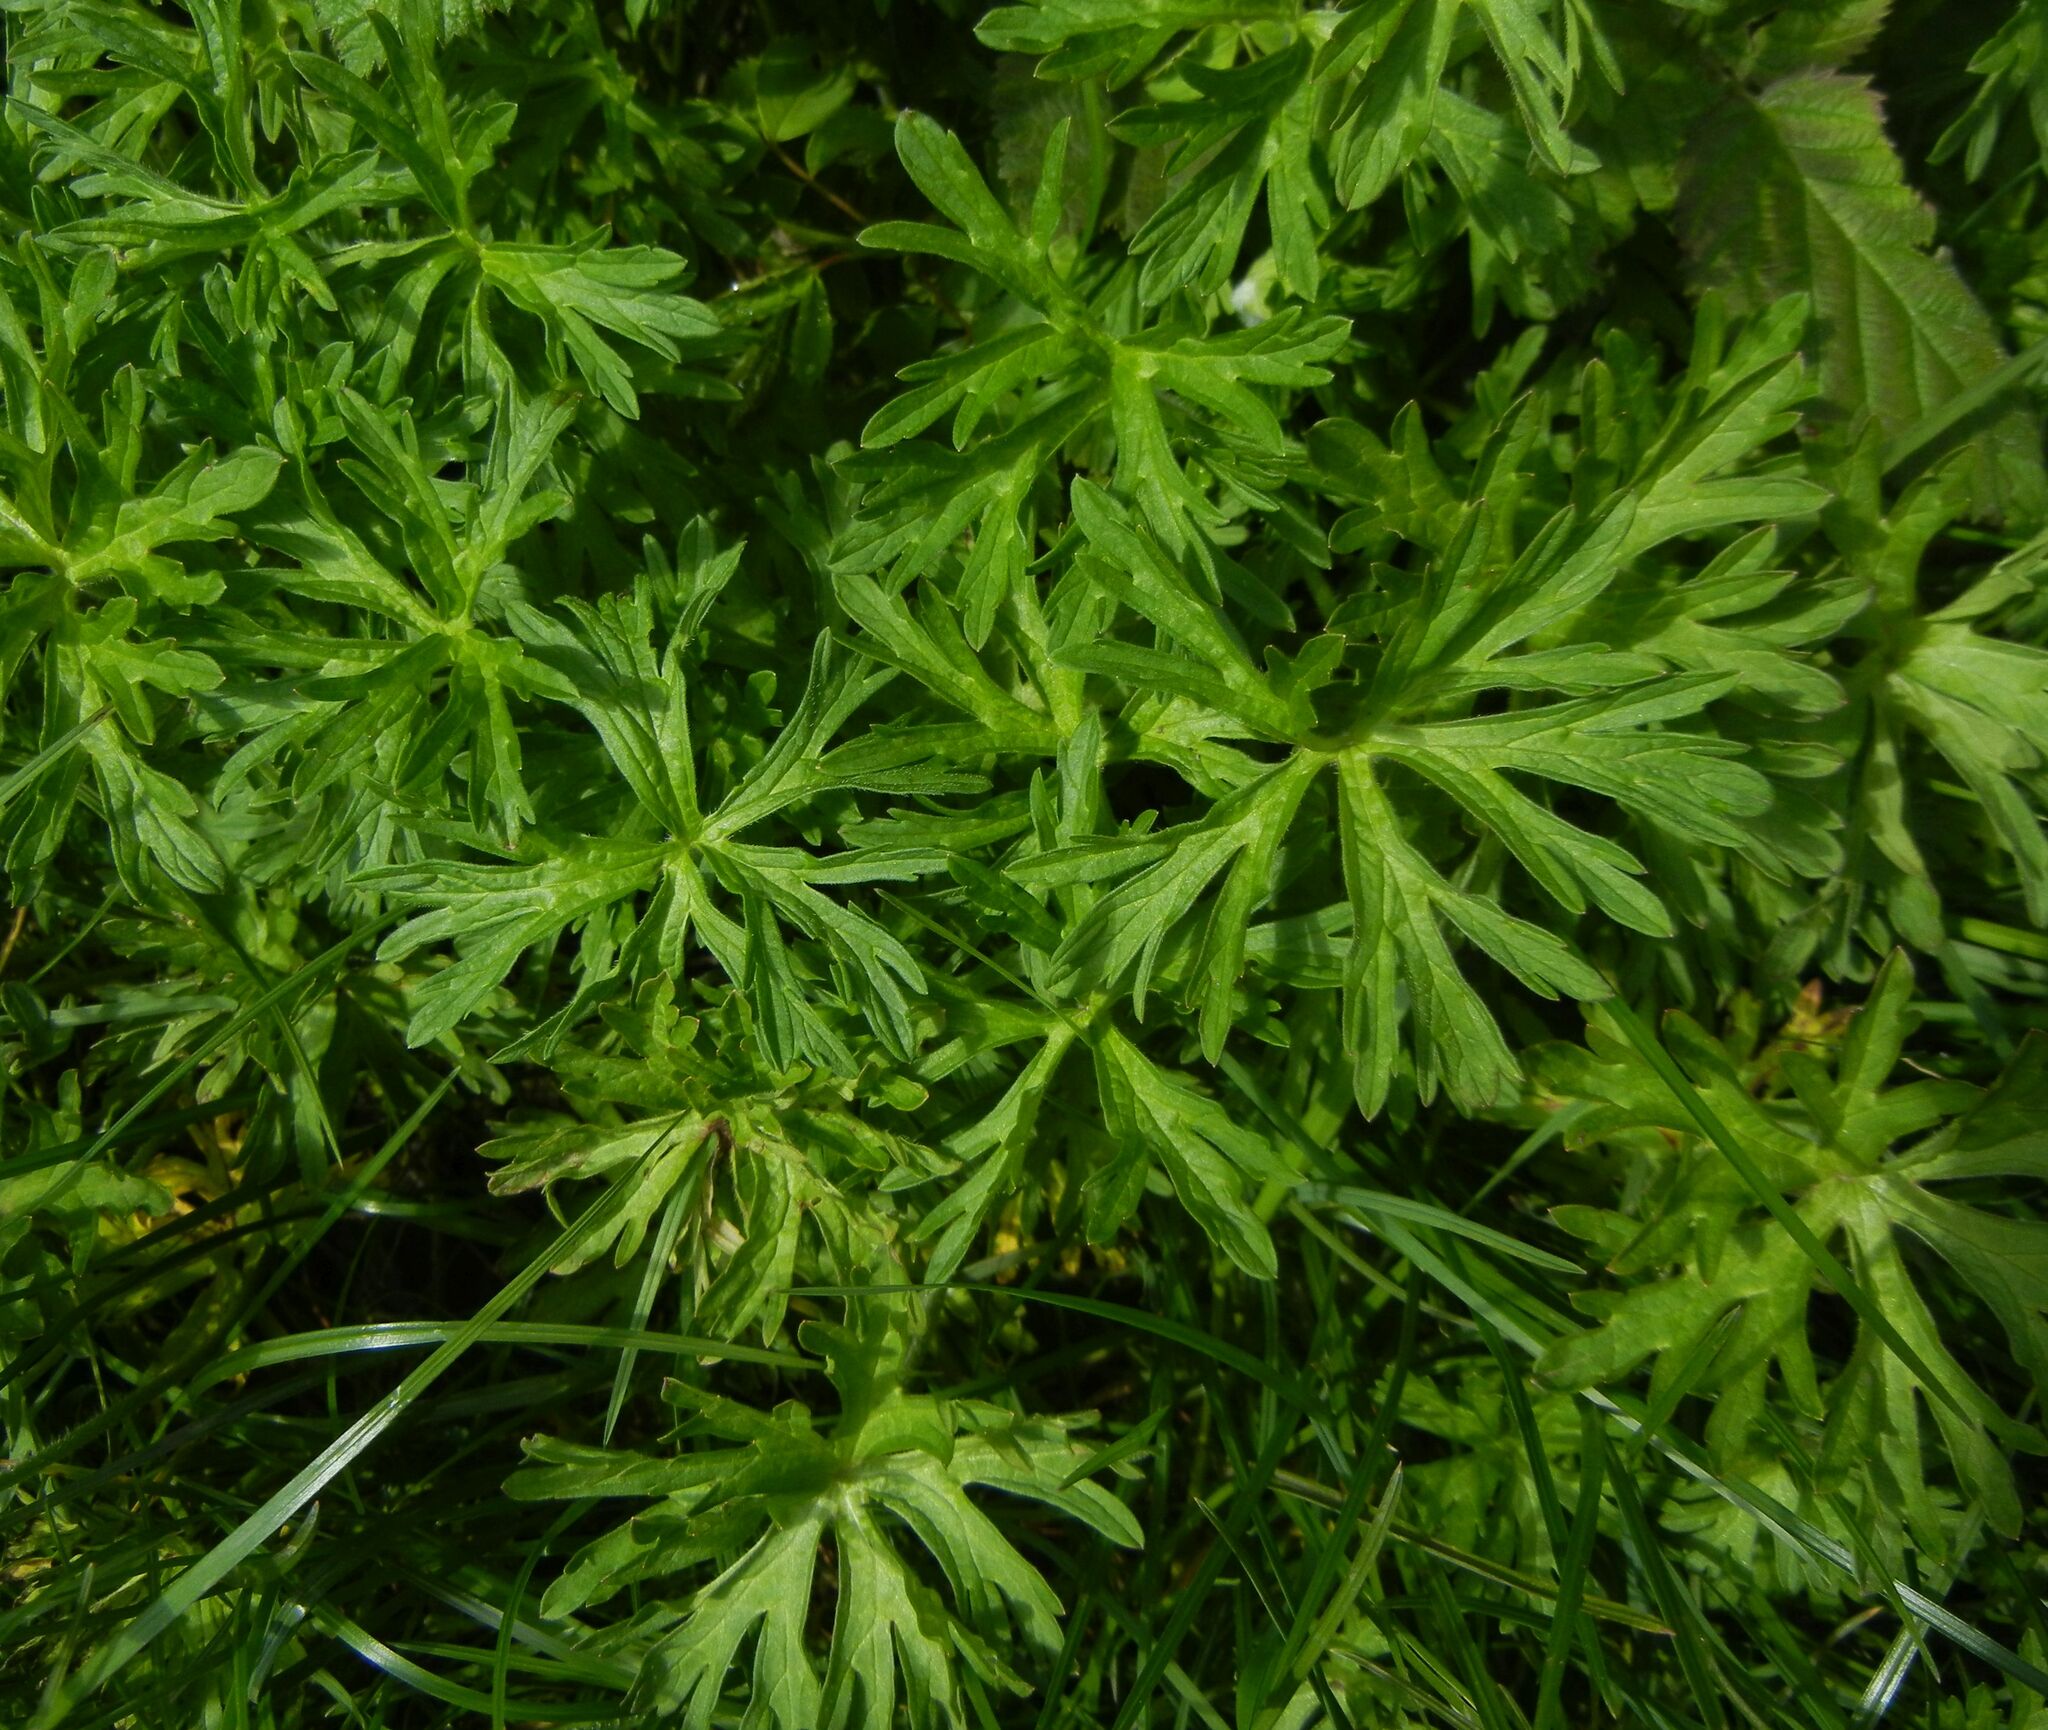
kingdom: Plantae
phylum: Tracheophyta
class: Magnoliopsida
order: Geraniales
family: Geraniaceae
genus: Geranium
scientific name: Geranium dissectum
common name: Cut-leaved crane's-bill
